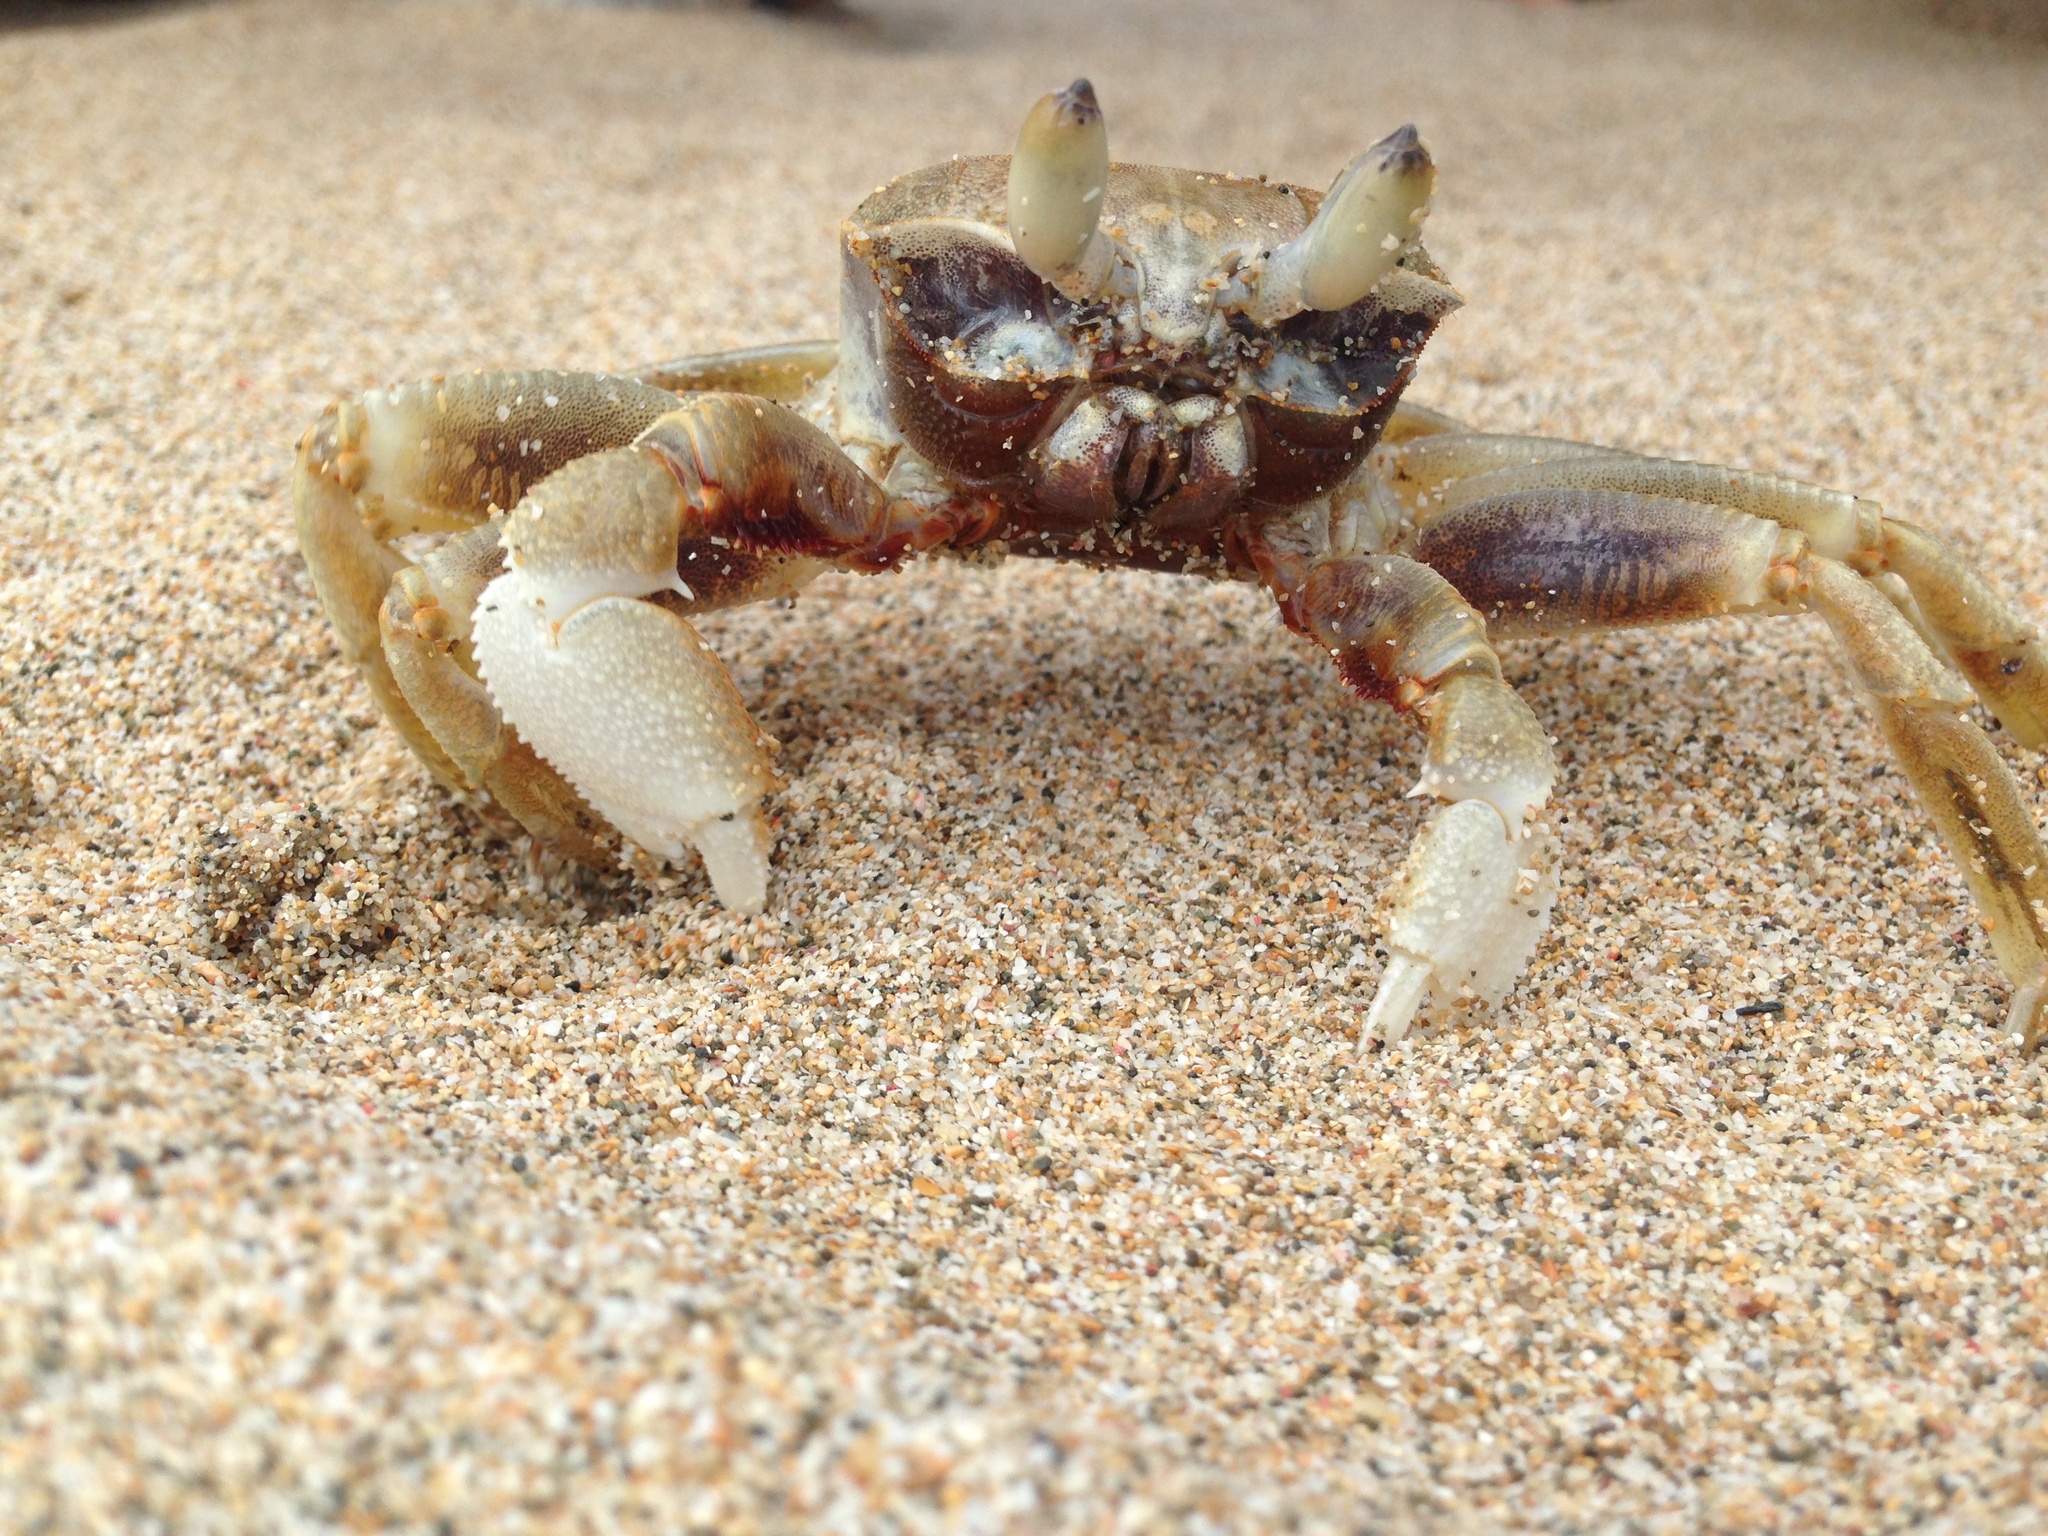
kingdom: Animalia
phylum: Arthropoda
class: Malacostraca
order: Decapoda
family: Ocypodidae
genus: Ocypode
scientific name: Ocypode ceratophthalmus
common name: Indo-pacific ghost crab
